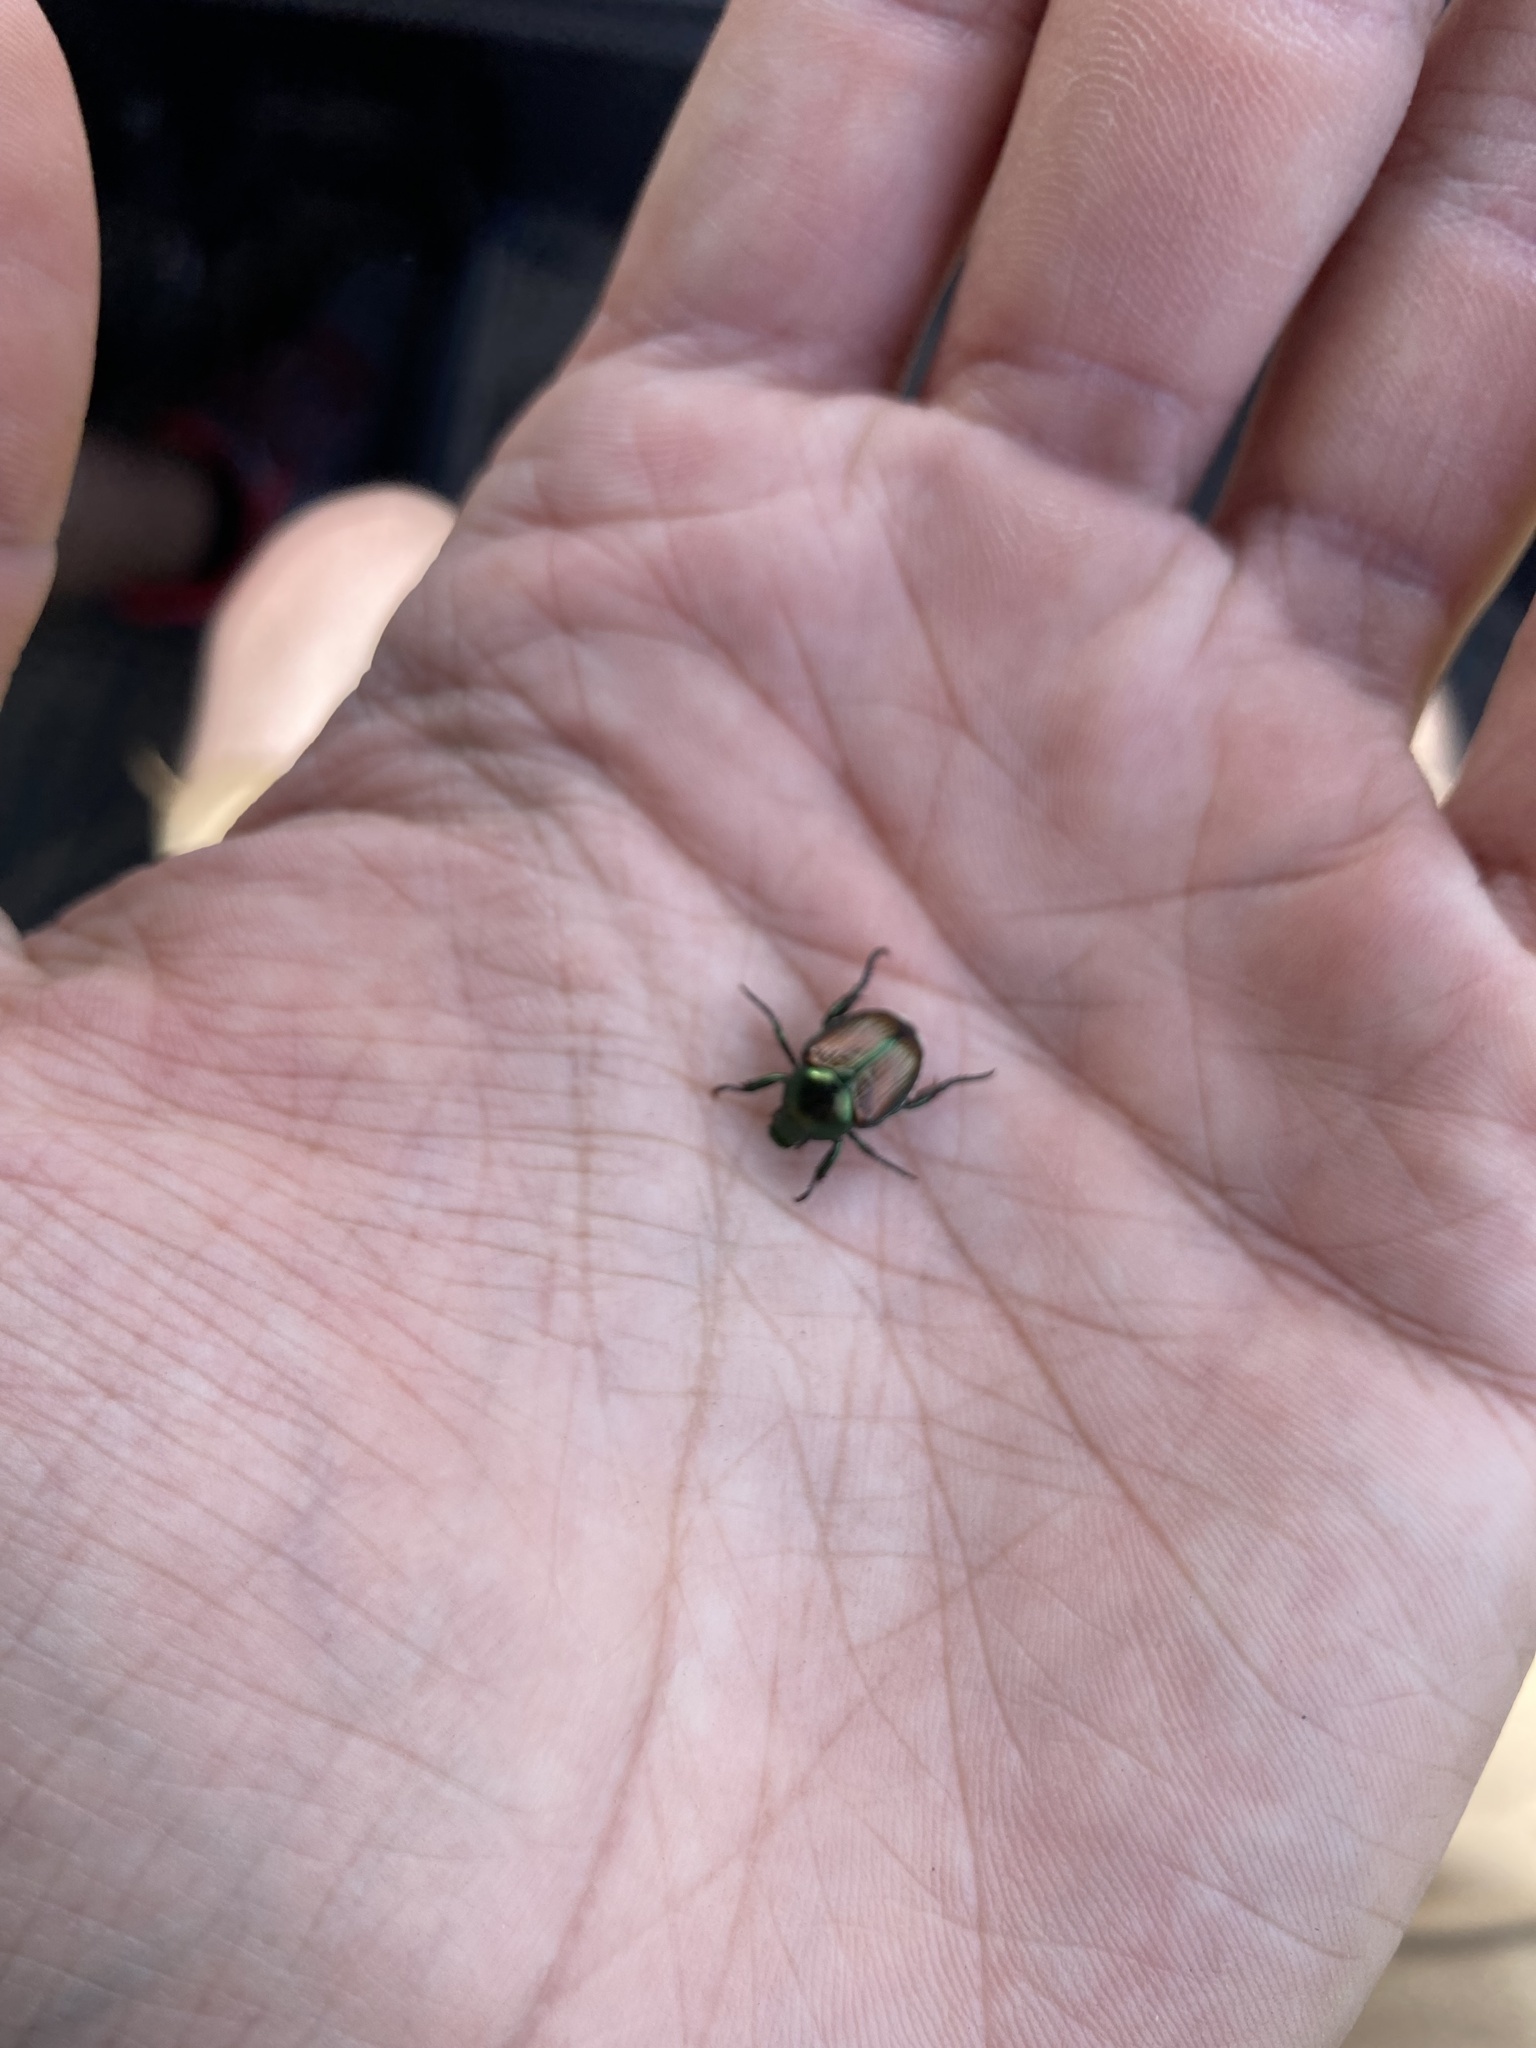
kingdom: Animalia
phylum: Arthropoda
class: Insecta
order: Coleoptera
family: Scarabaeidae
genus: Popillia
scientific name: Popillia japonica
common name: Japanese beetle
